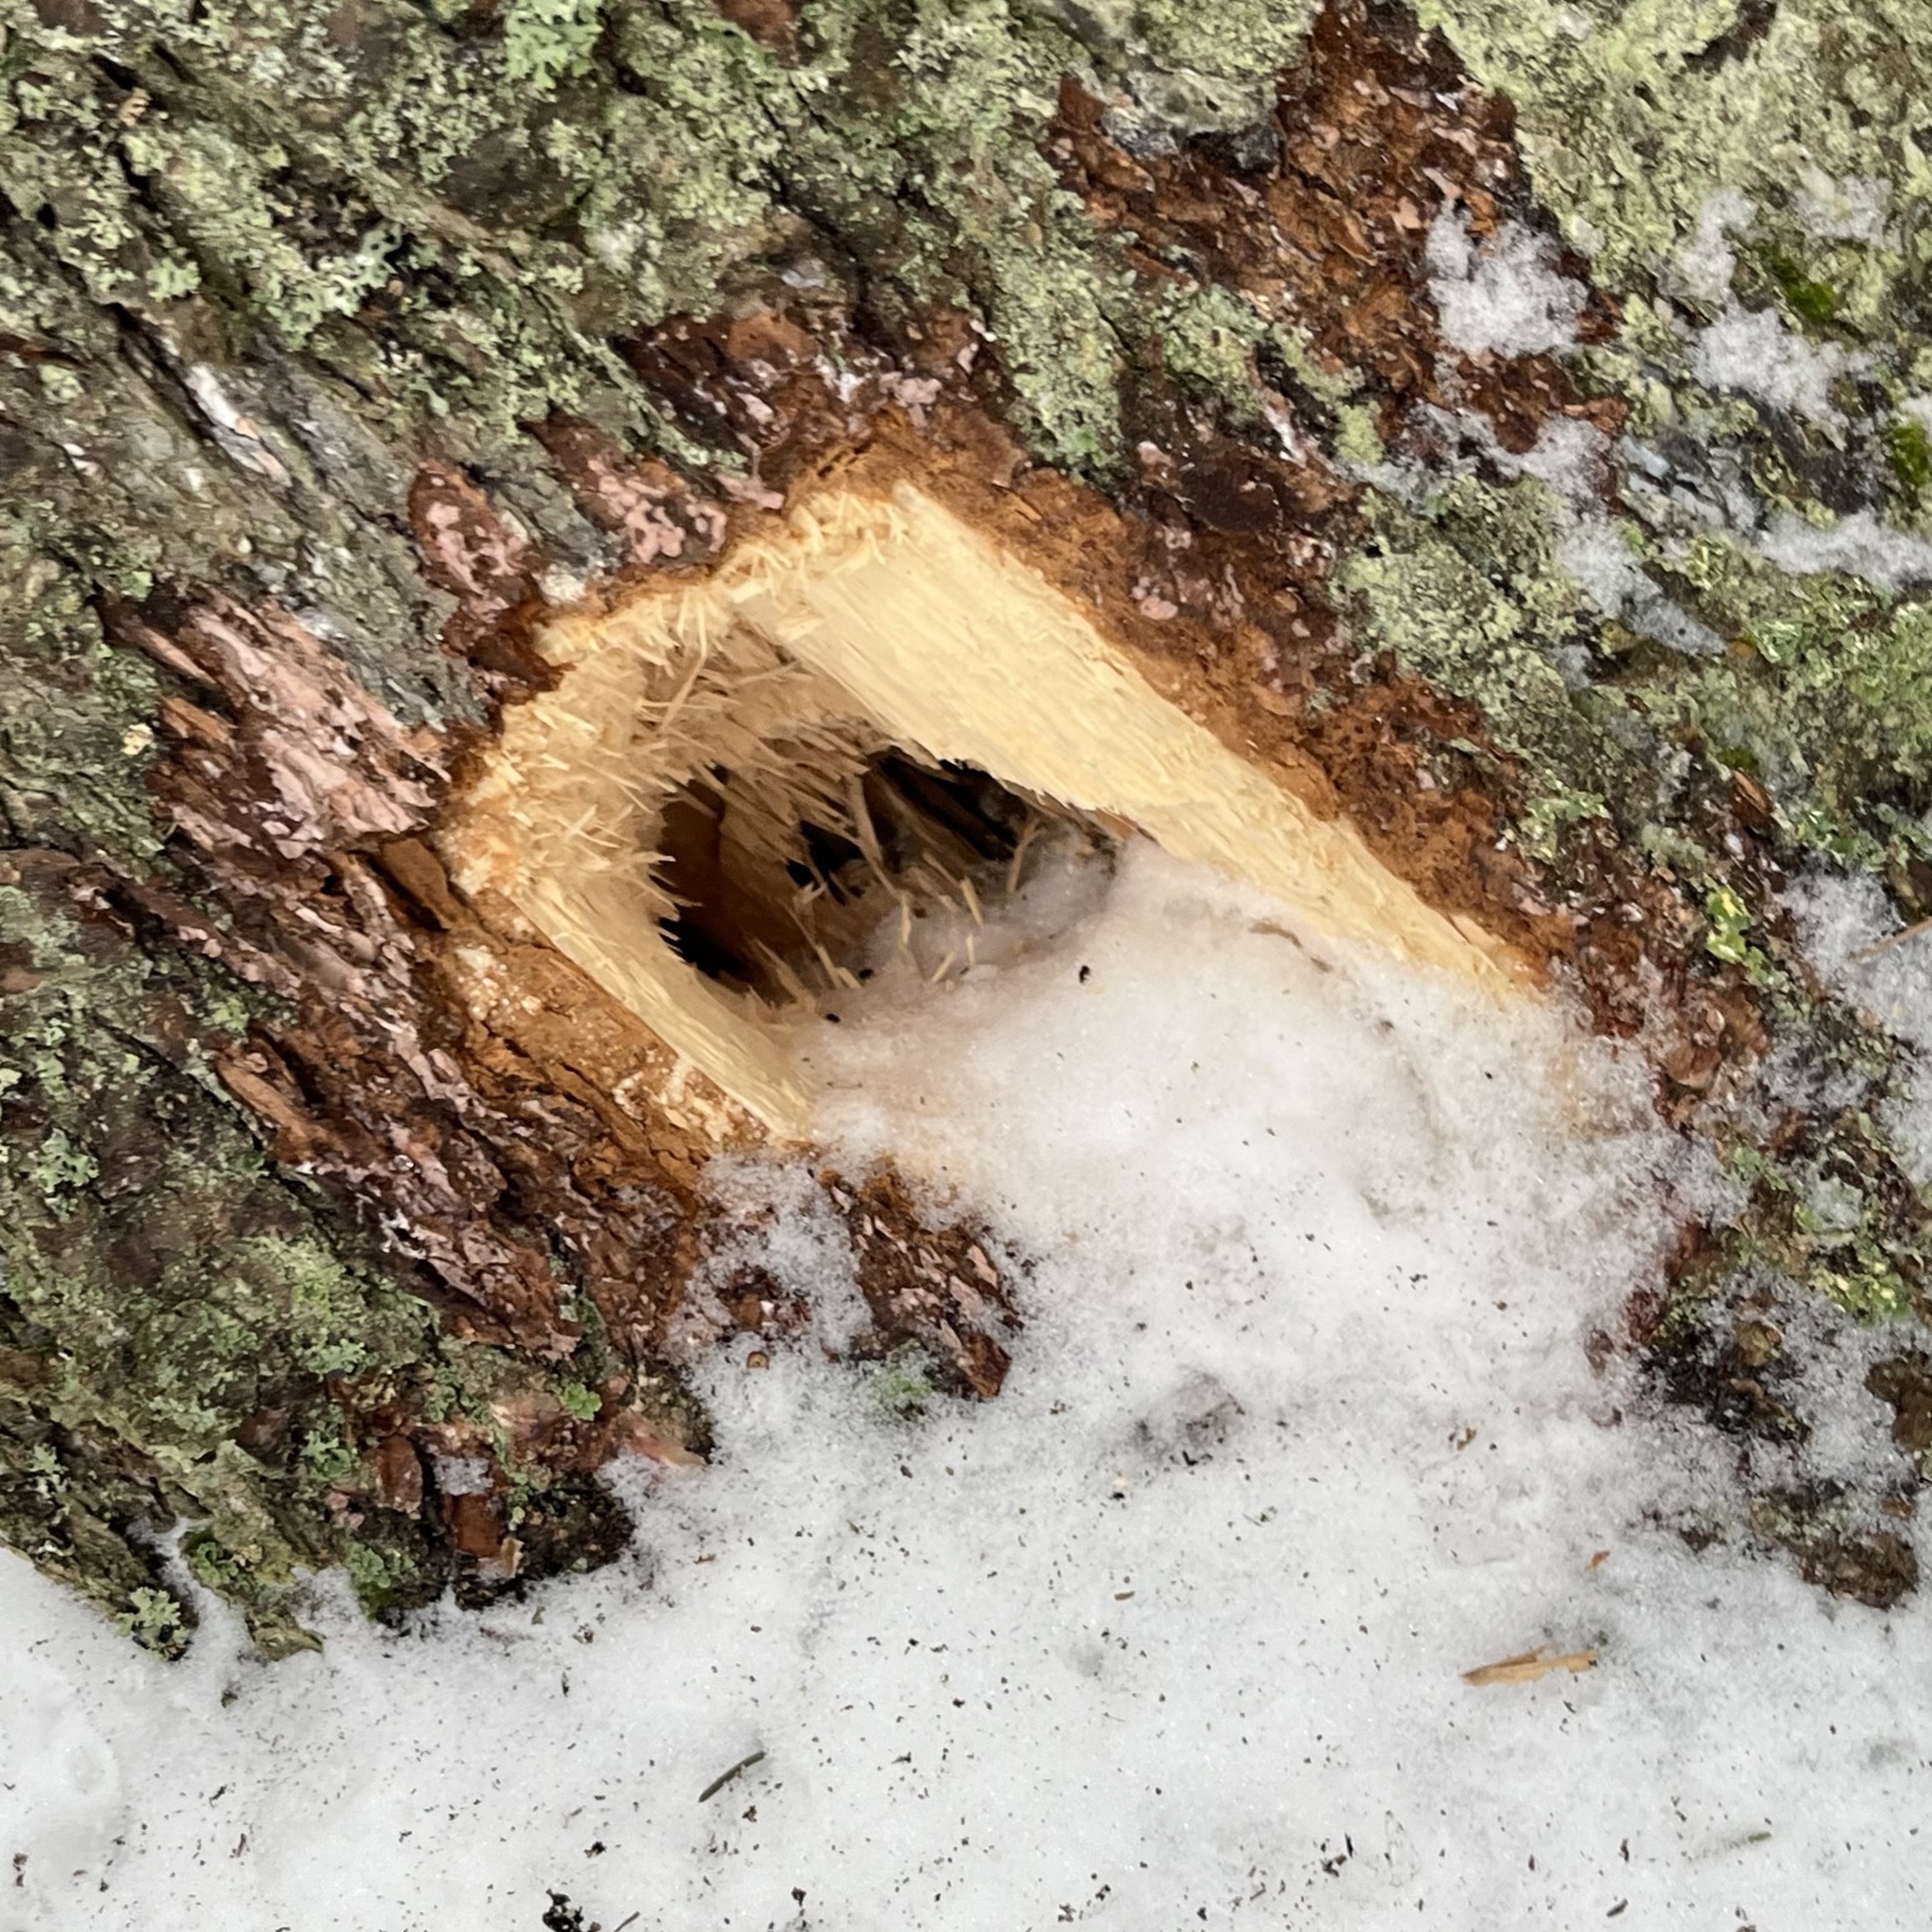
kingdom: Animalia
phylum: Chordata
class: Aves
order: Piciformes
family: Picidae
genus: Dryocopus
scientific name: Dryocopus martius
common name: Black woodpecker
